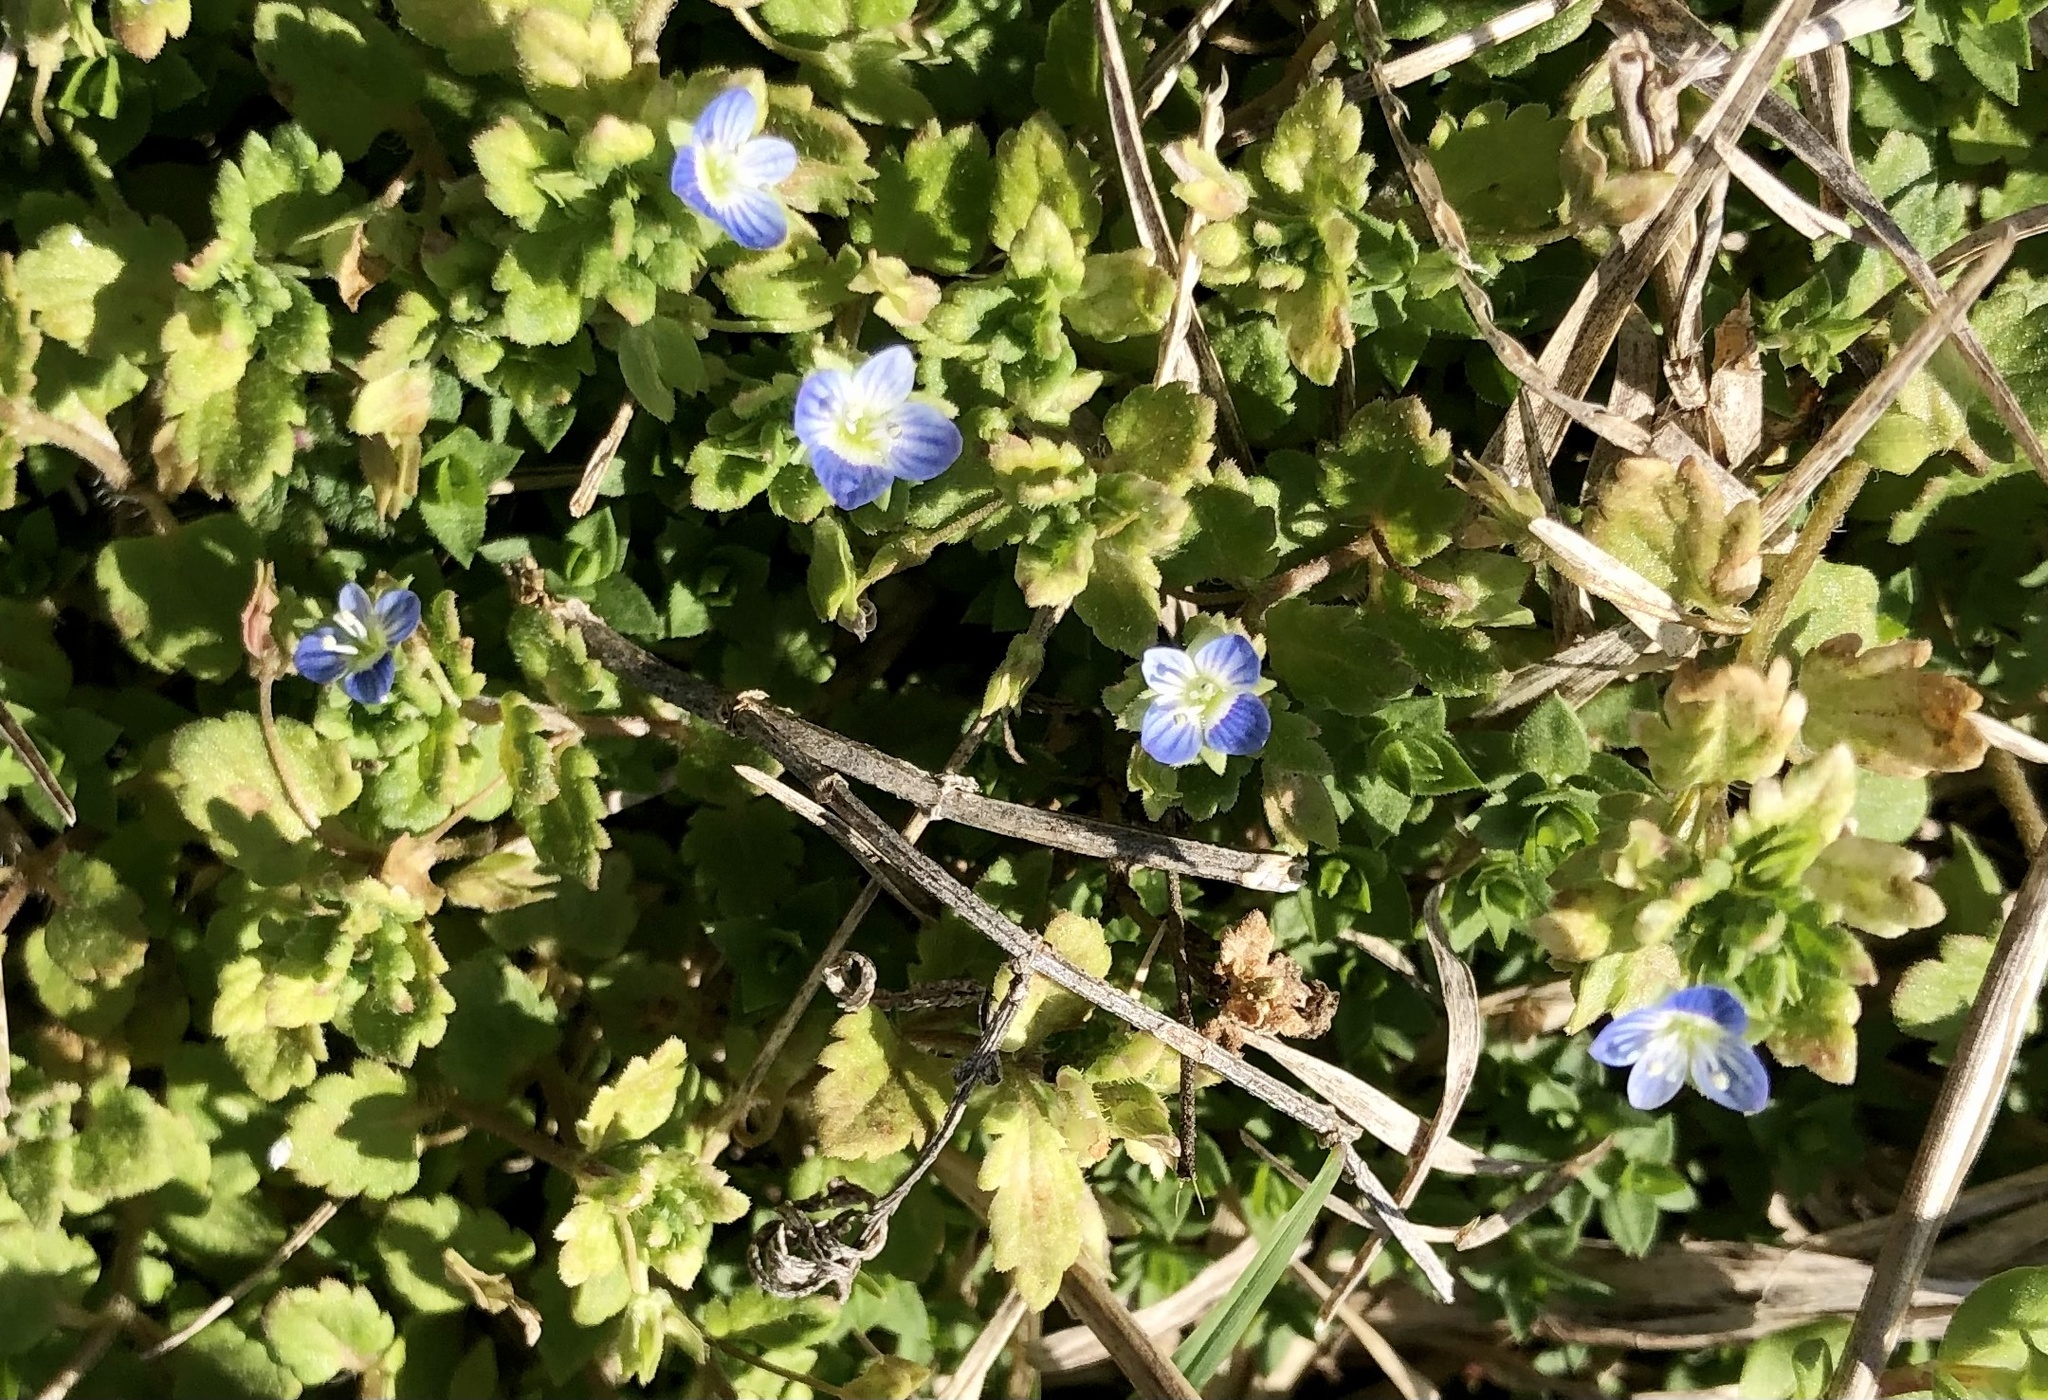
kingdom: Plantae
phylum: Tracheophyta
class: Magnoliopsida
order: Lamiales
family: Plantaginaceae
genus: Veronica
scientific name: Veronica persica
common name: Common field-speedwell
